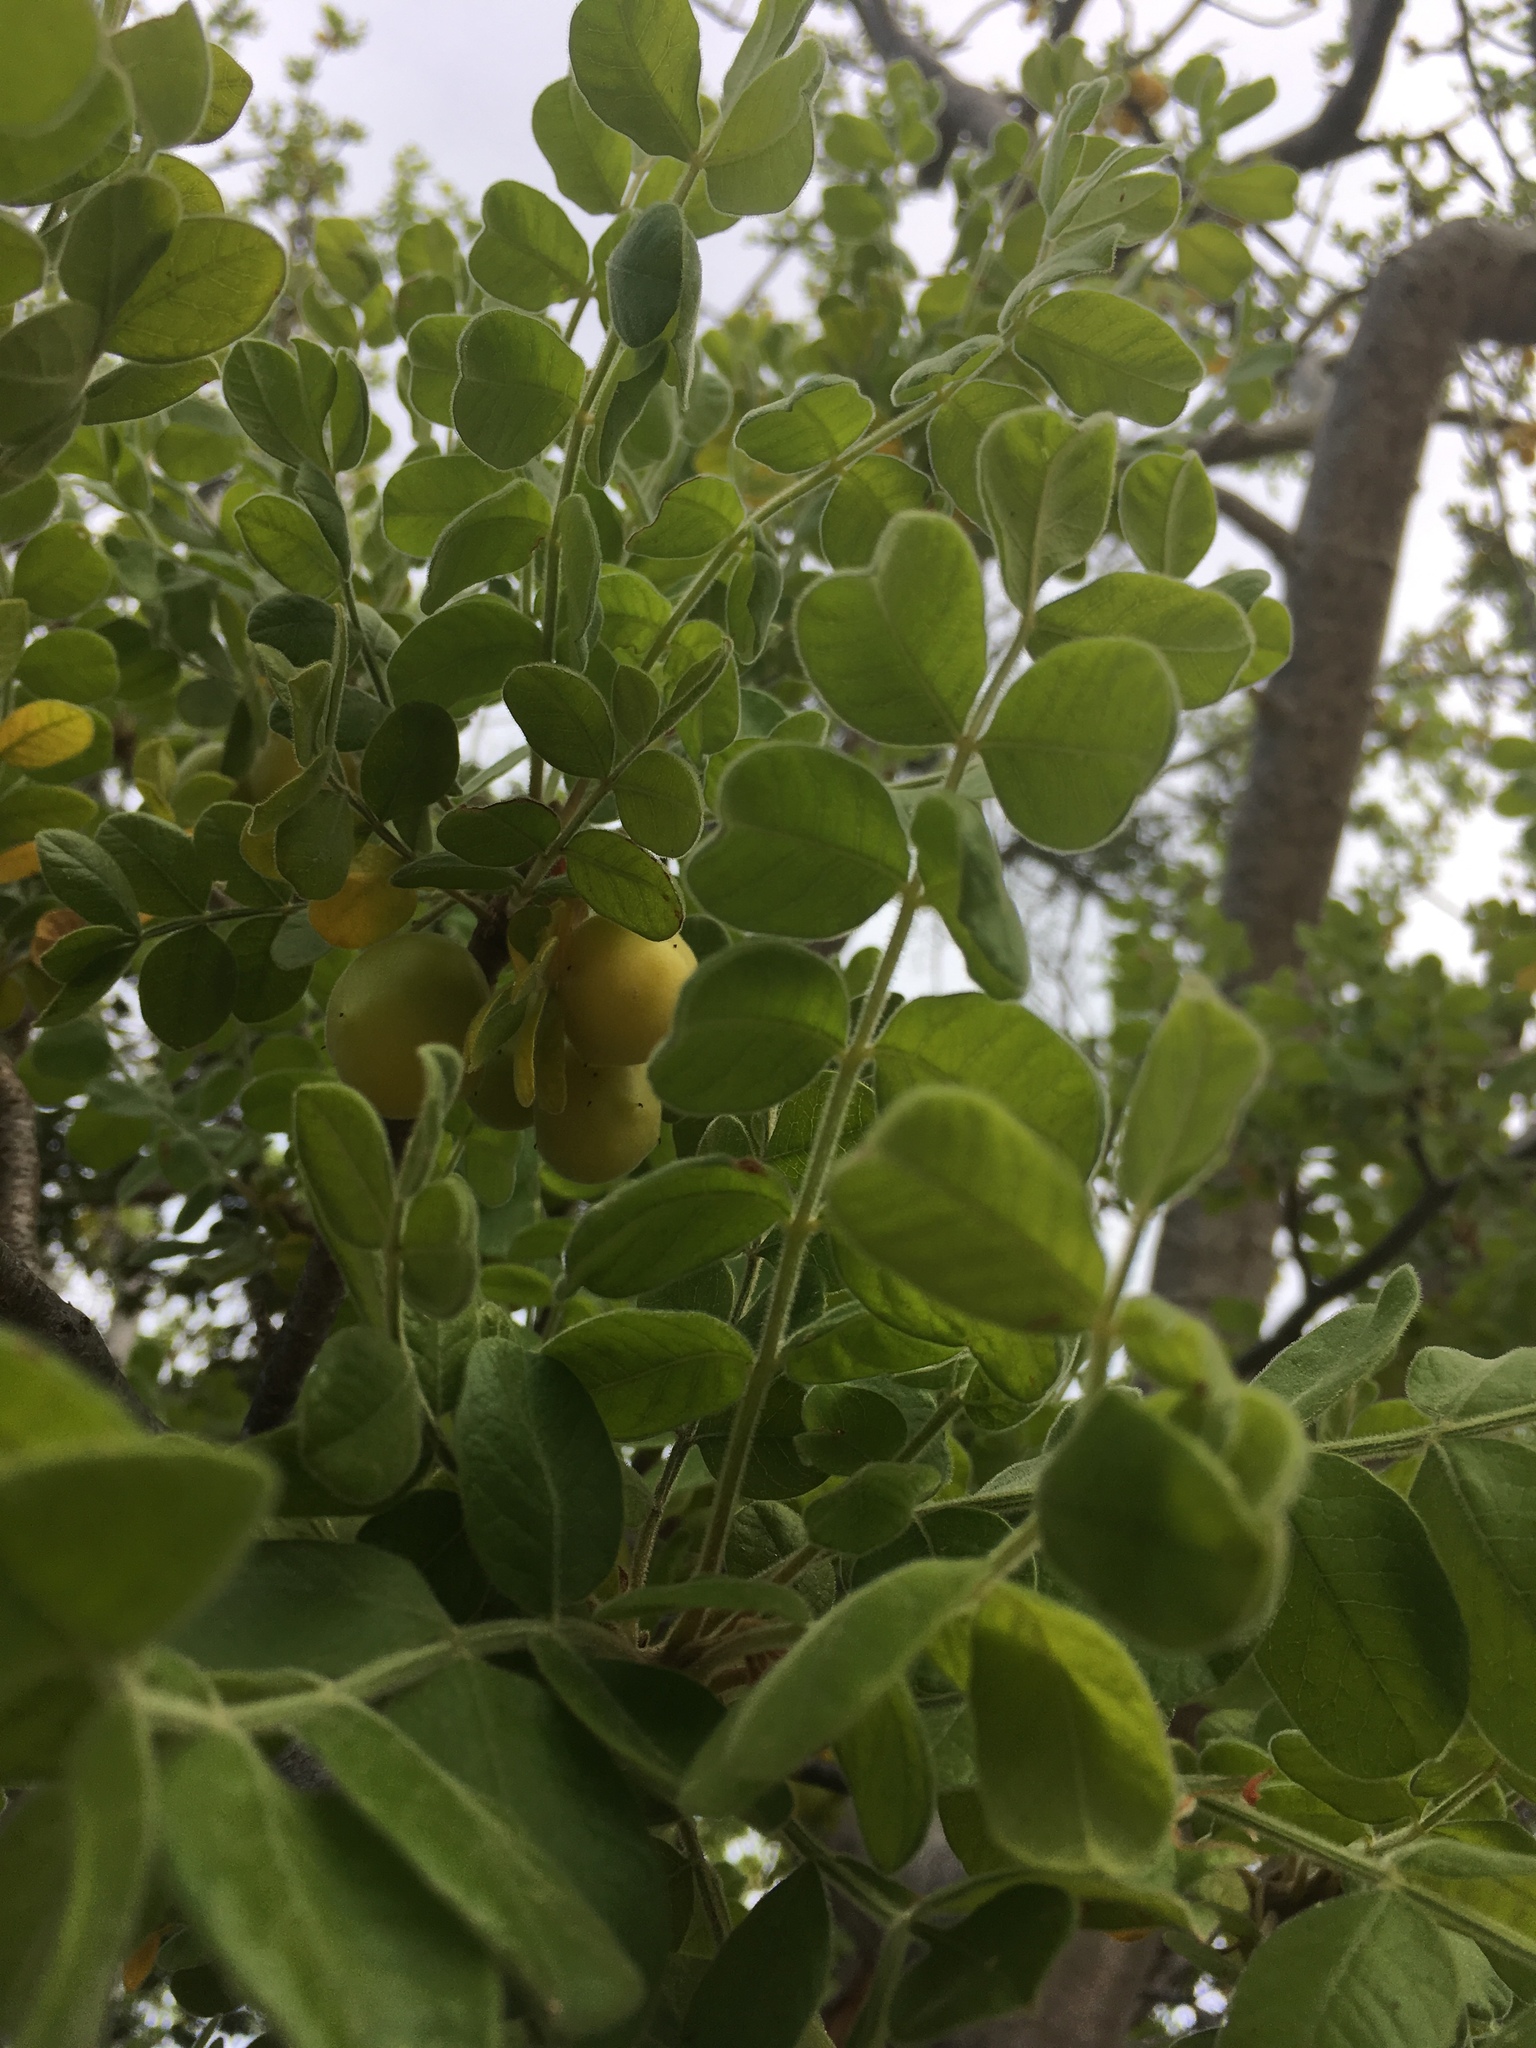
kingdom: Plantae
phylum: Tracheophyta
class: Magnoliopsida
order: Sapindales
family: Anacardiaceae
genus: Cyrtocarpa
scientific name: Cyrtocarpa edulis
